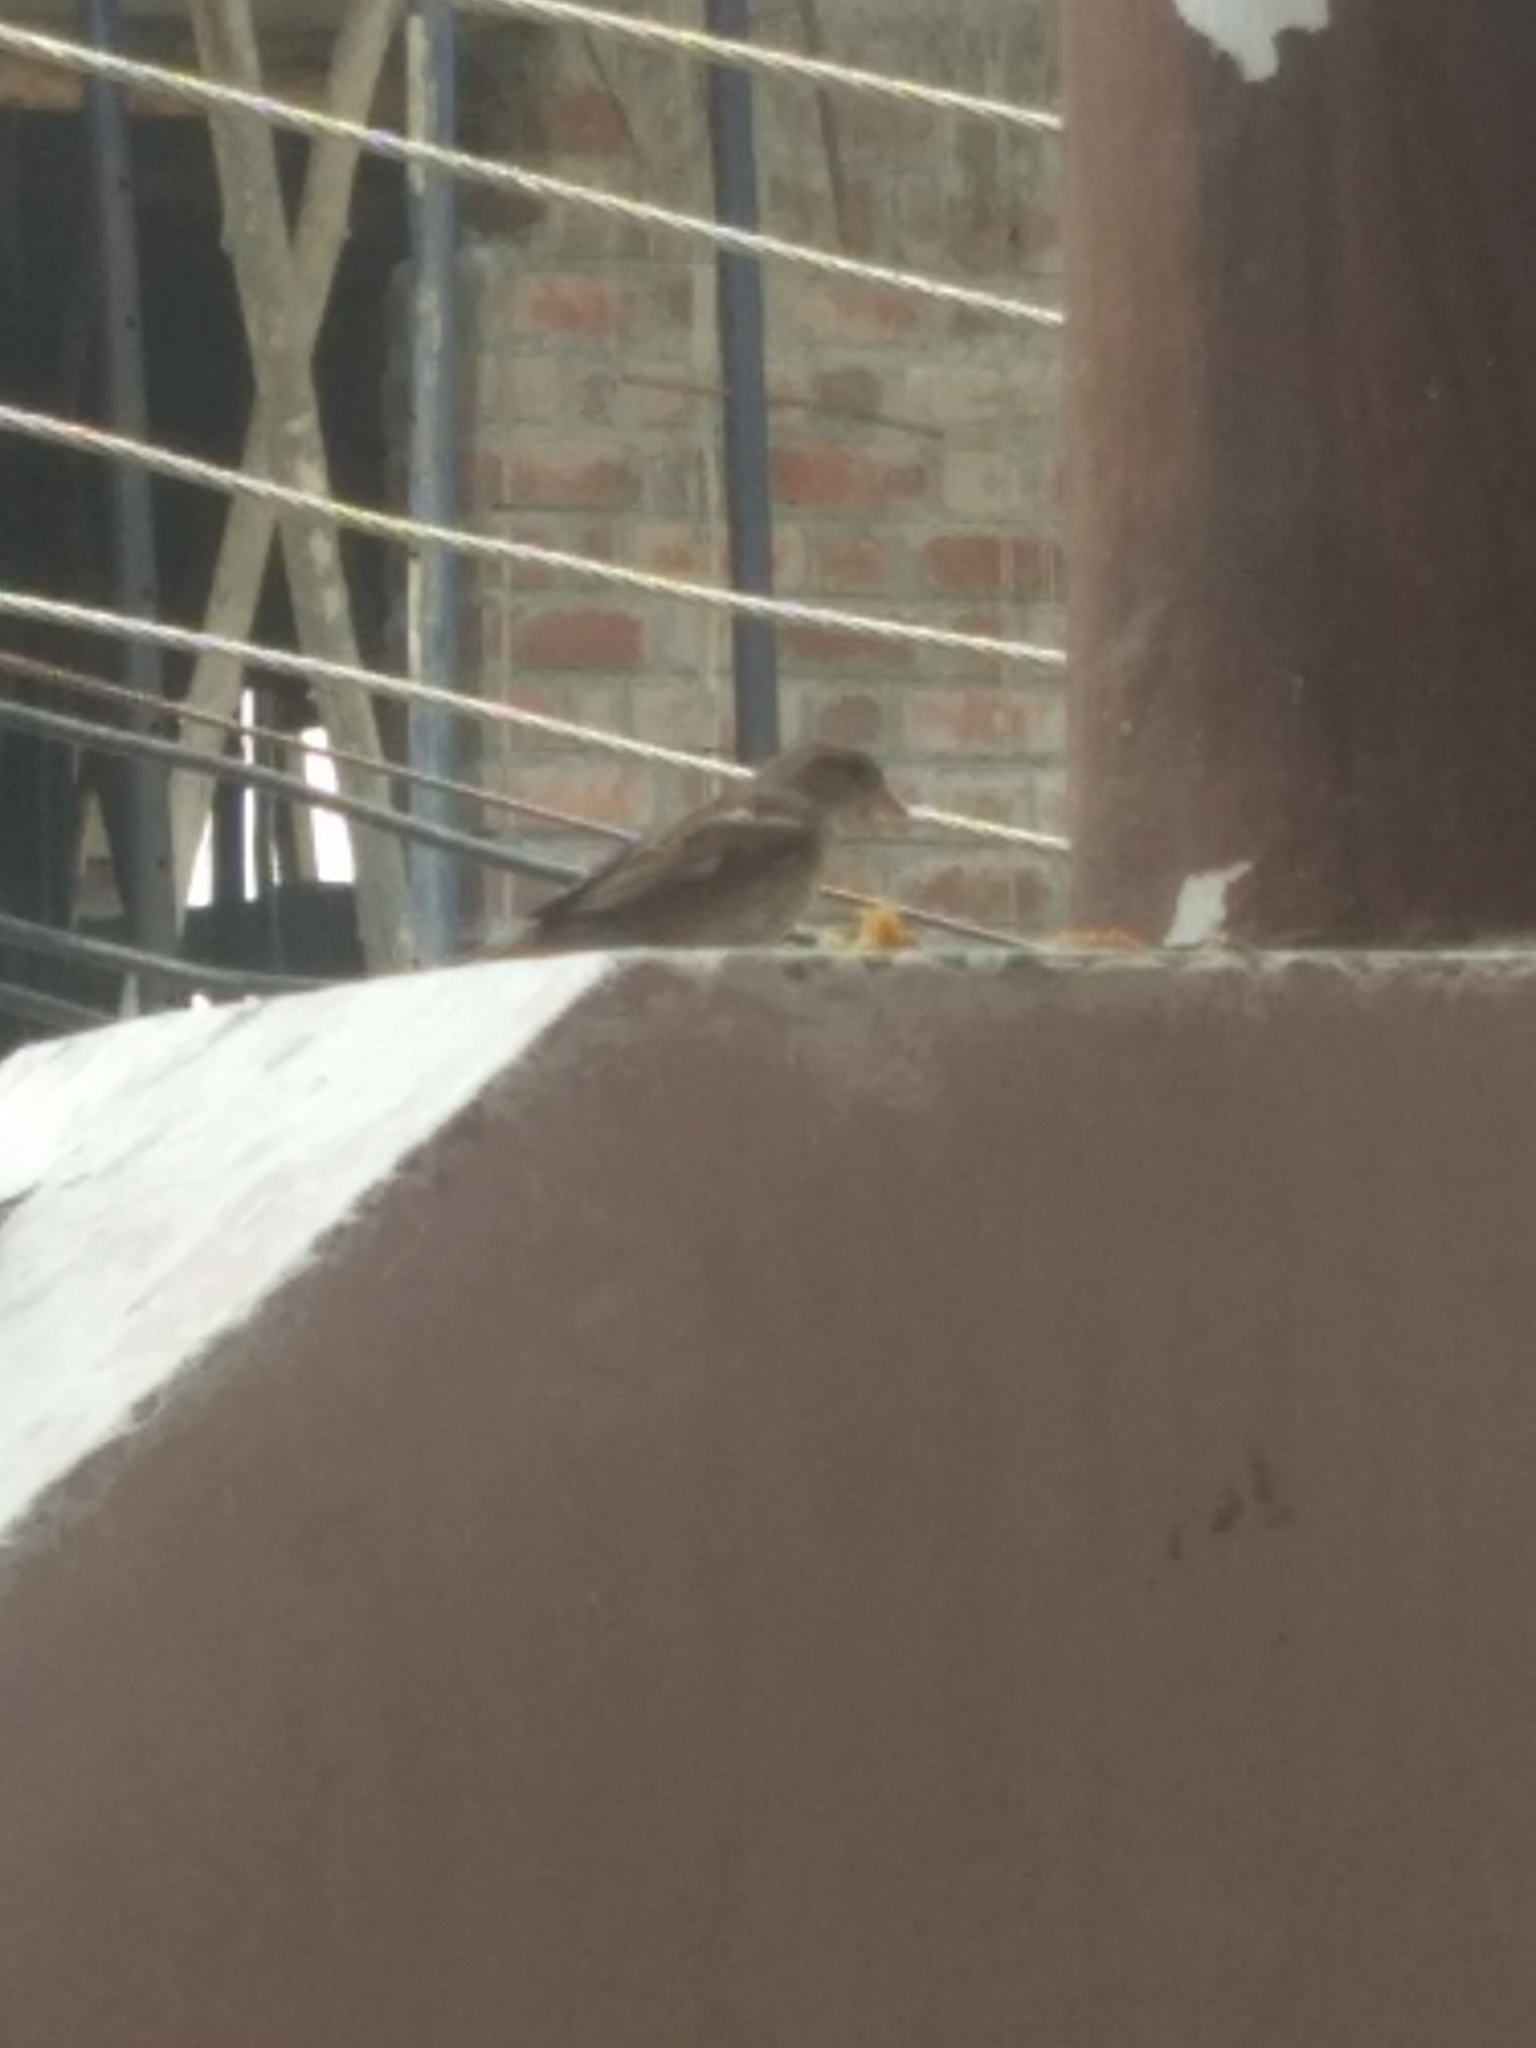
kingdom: Animalia
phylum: Chordata
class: Aves
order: Passeriformes
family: Passeridae
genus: Passer
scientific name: Passer domesticus
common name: House sparrow
